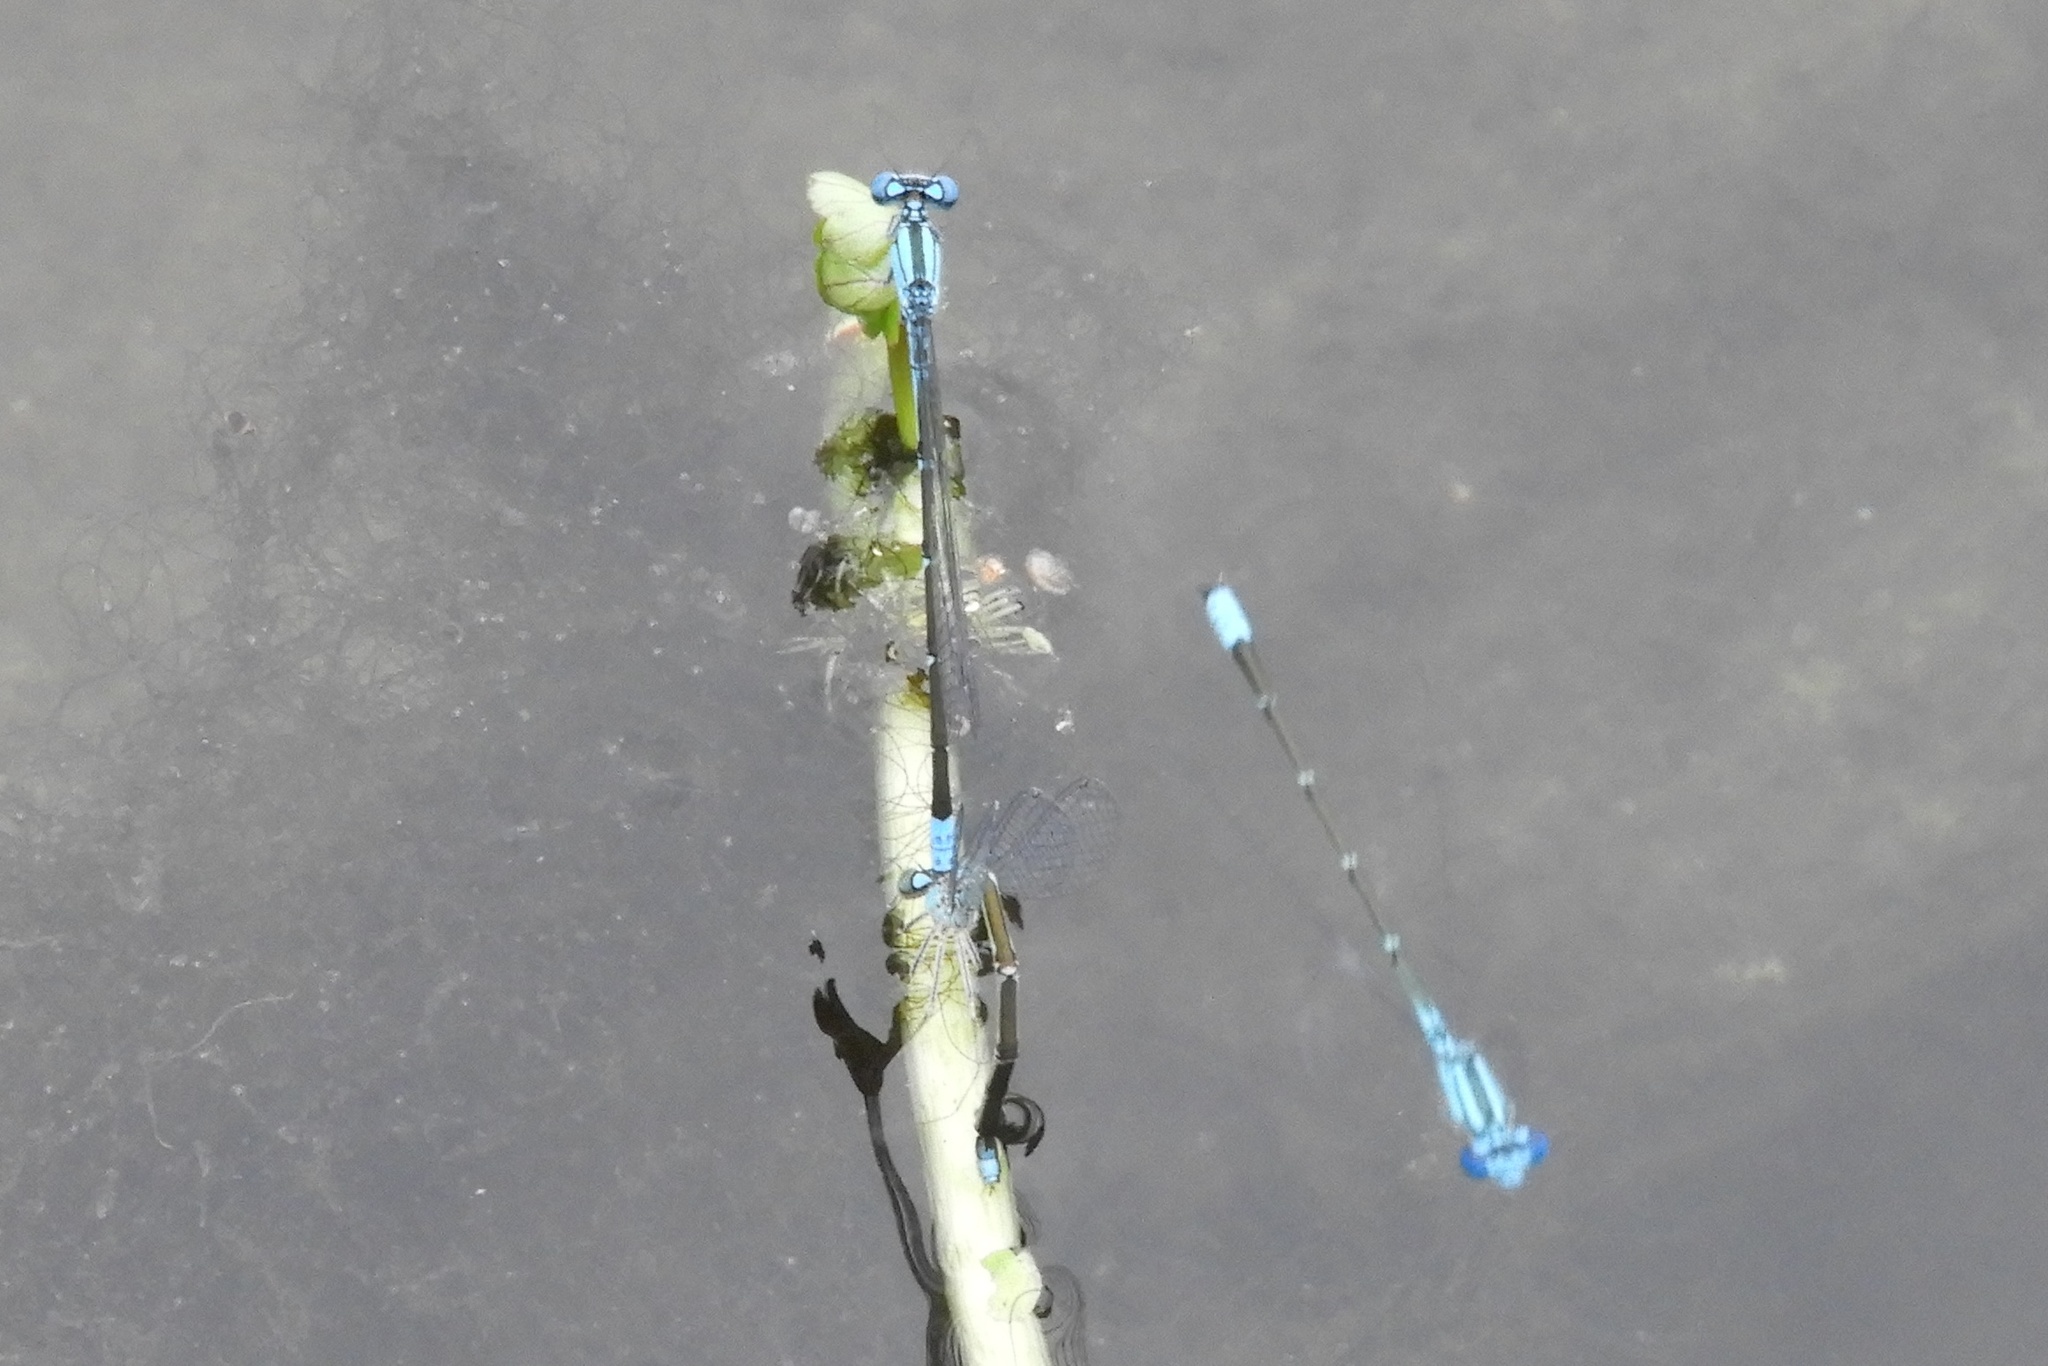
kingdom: Animalia
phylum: Arthropoda
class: Insecta
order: Odonata
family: Coenagrionidae
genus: Enallagma
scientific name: Enallagma traviatum
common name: Slender bluet
